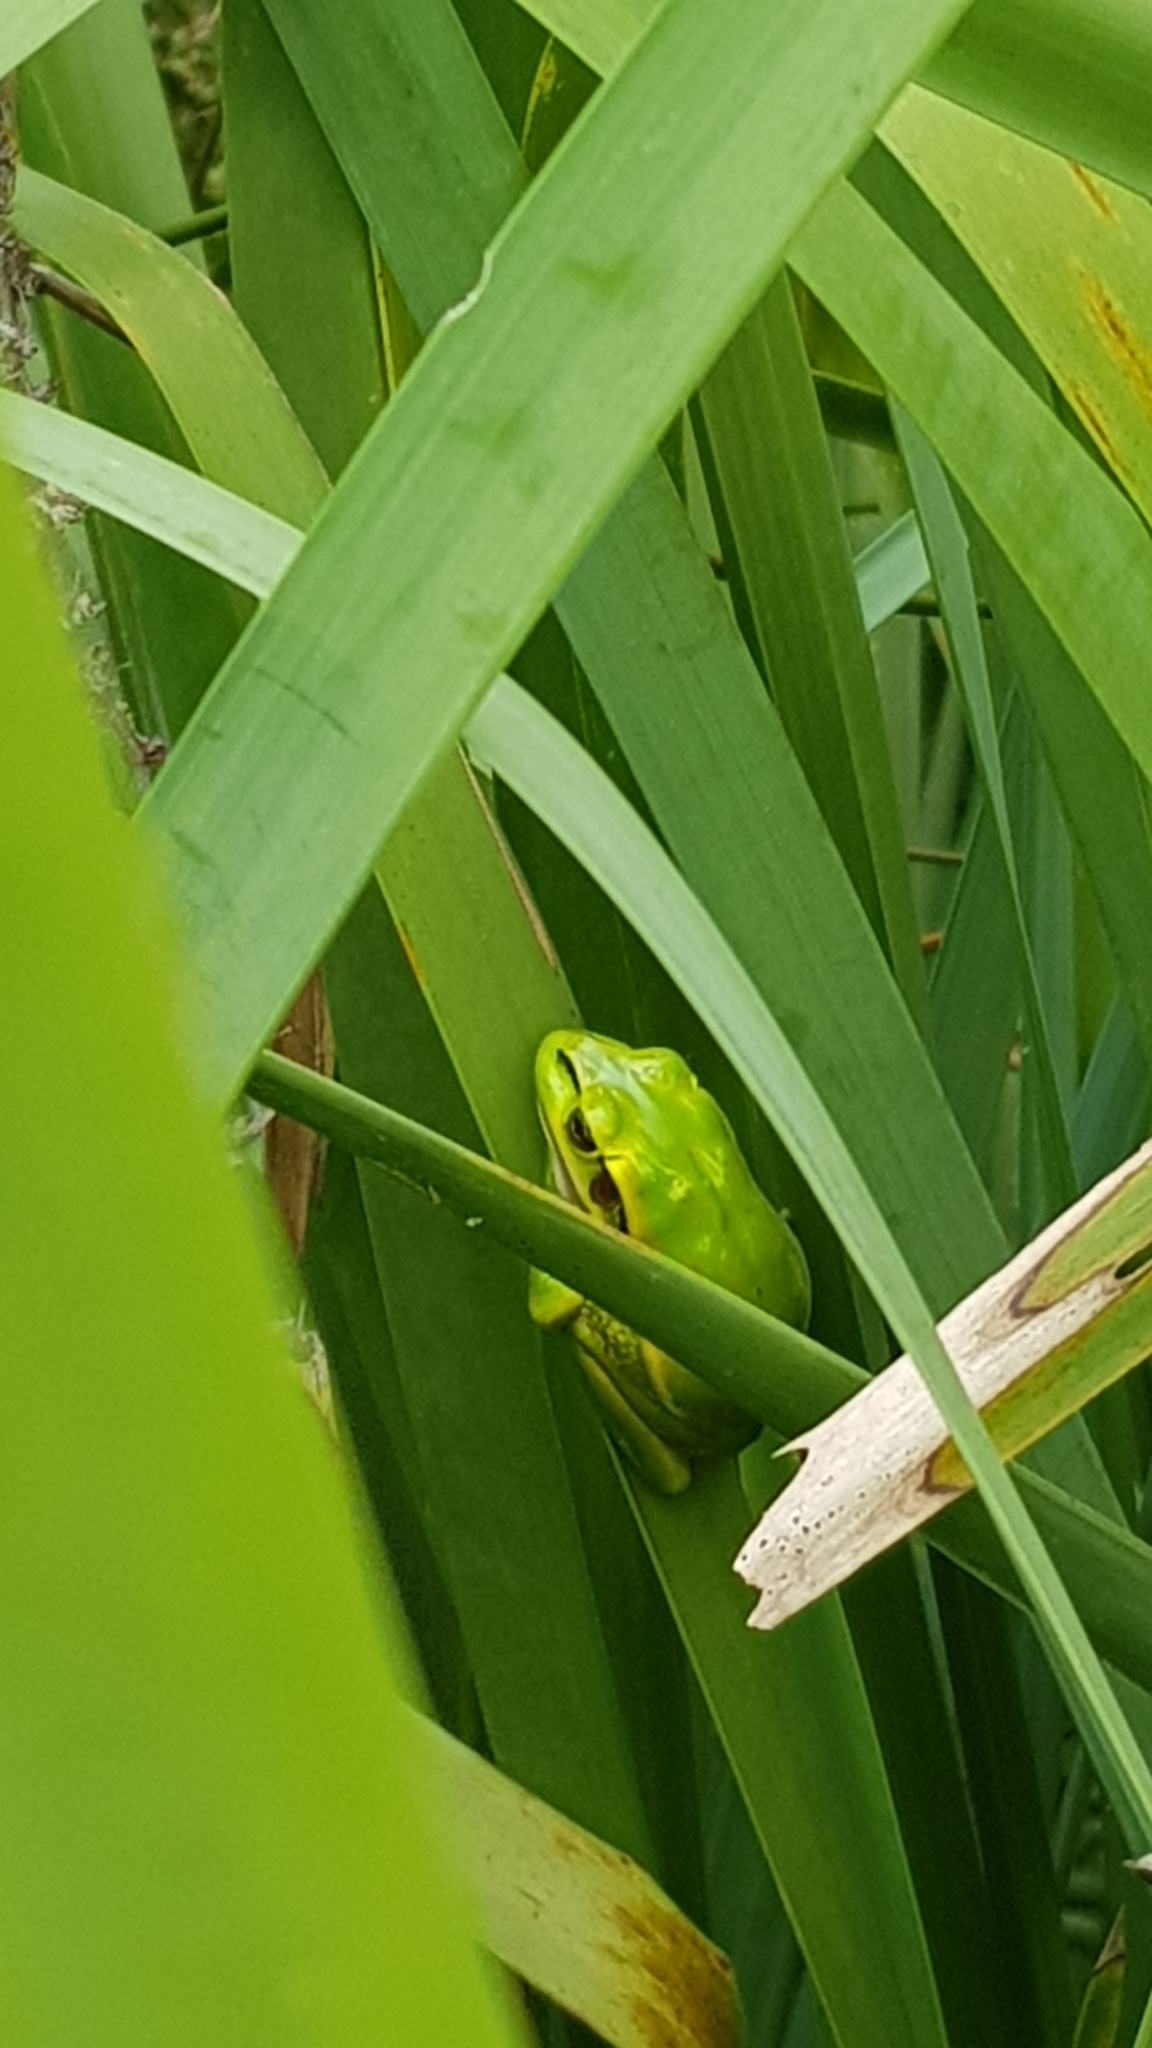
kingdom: Animalia
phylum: Chordata
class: Amphibia
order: Anura
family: Pelodryadidae
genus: Ranoidea
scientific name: Ranoidea aurea
